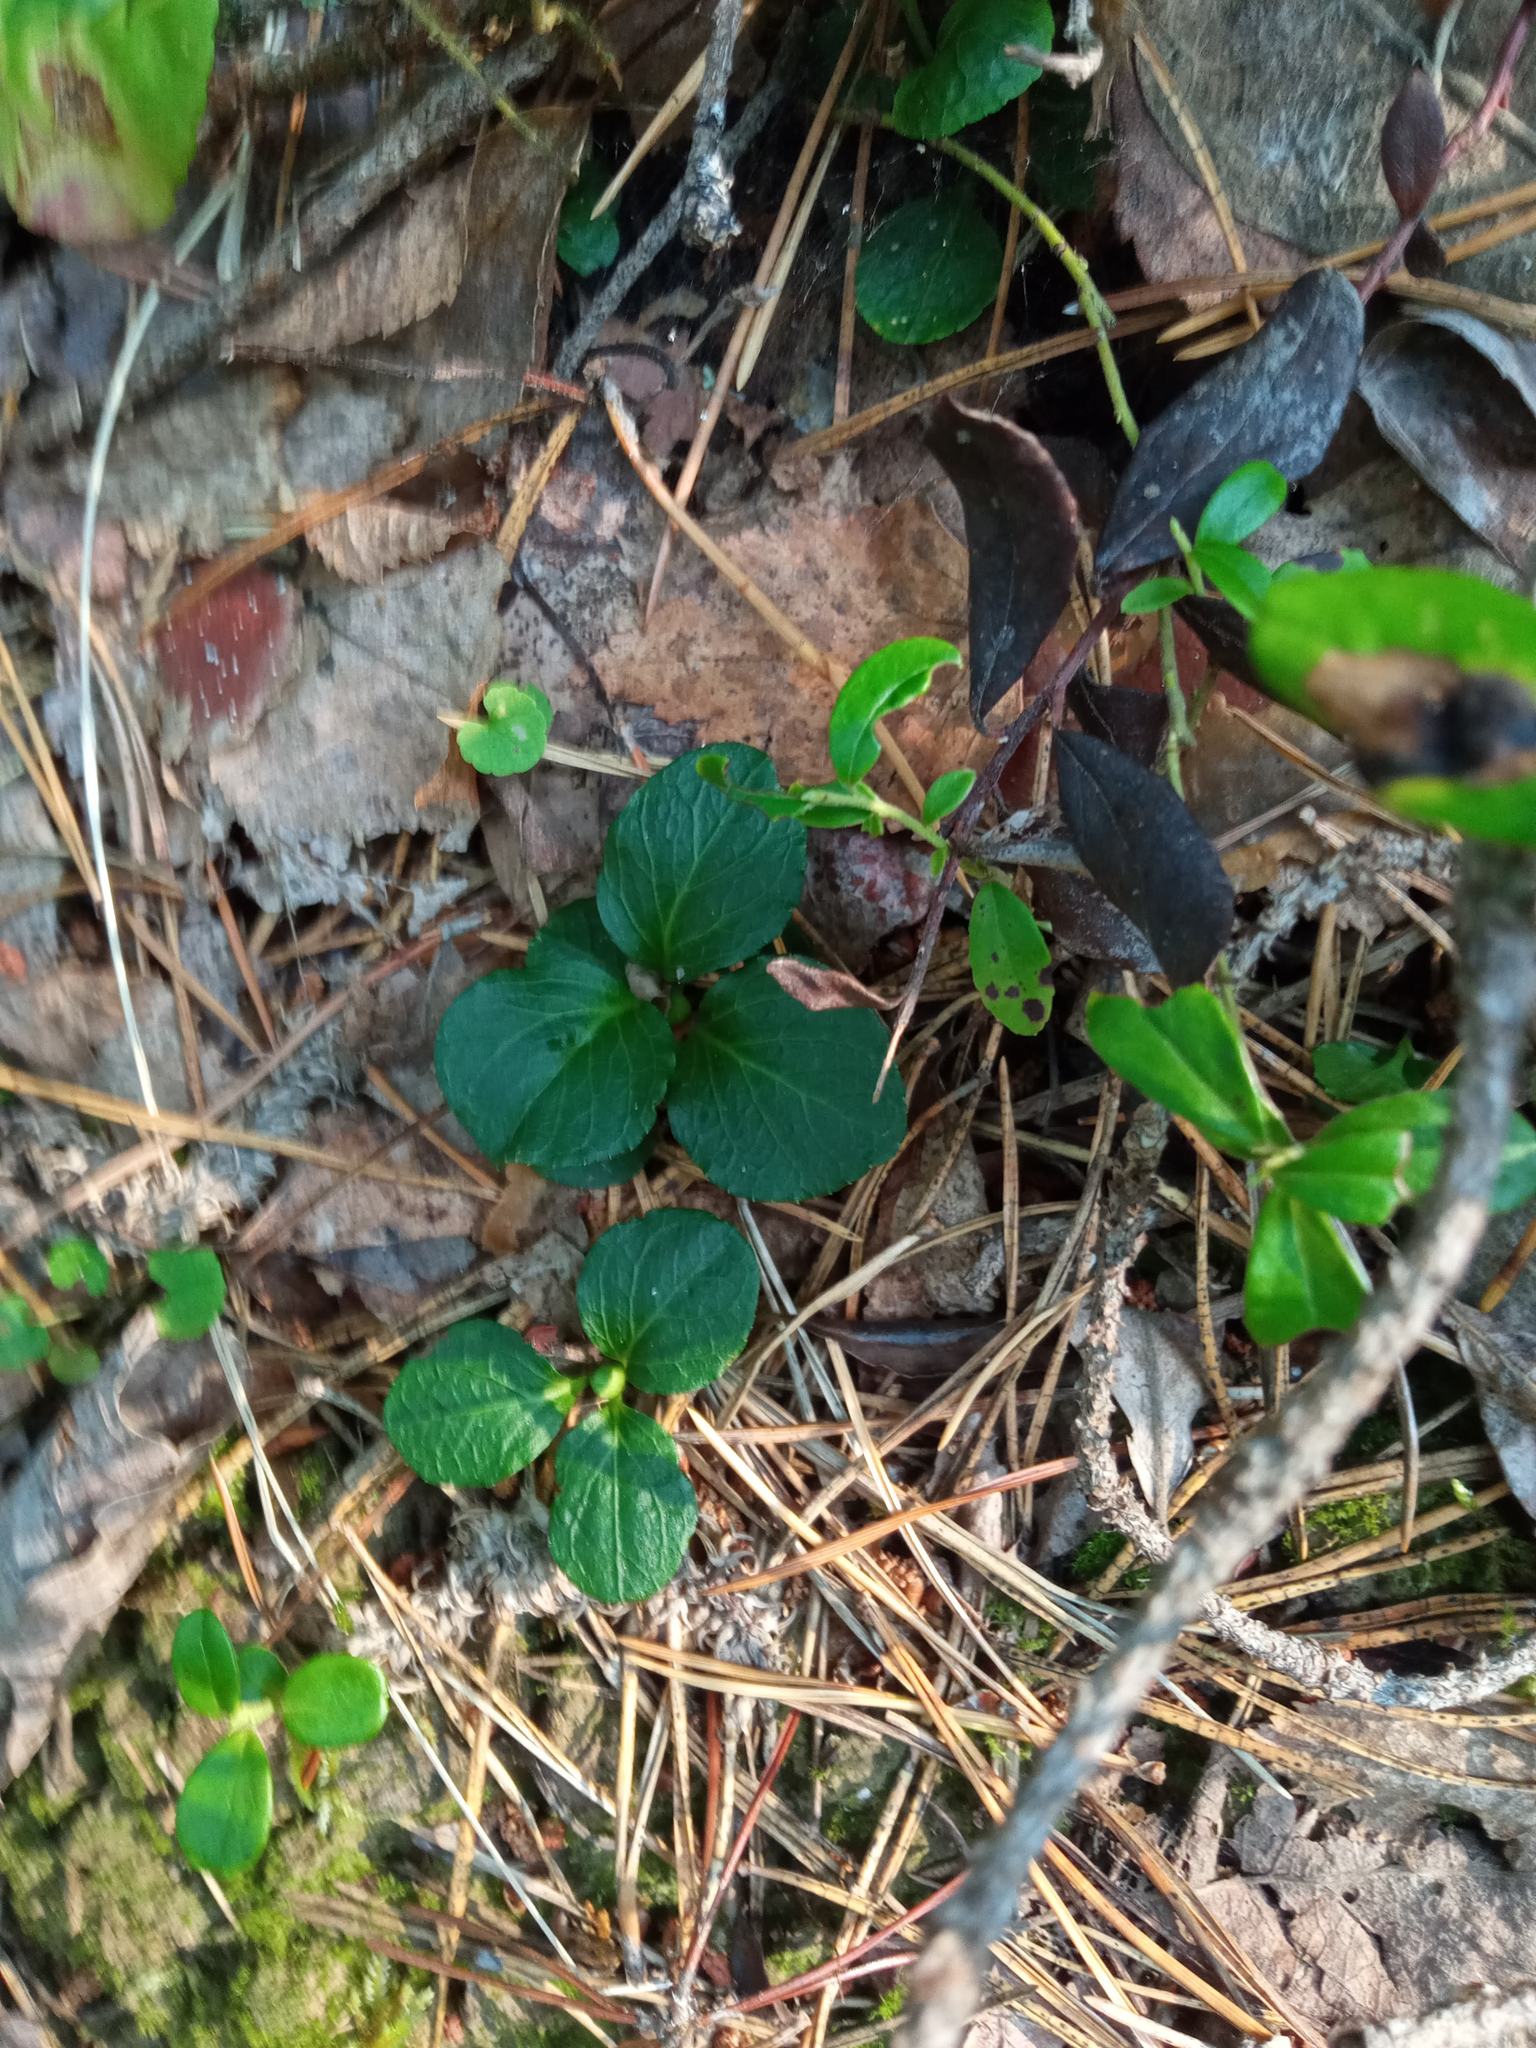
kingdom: Plantae
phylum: Tracheophyta
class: Magnoliopsida
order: Ericales
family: Ericaceae
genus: Pyrola
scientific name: Pyrola chlorantha
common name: Green wintergreen
